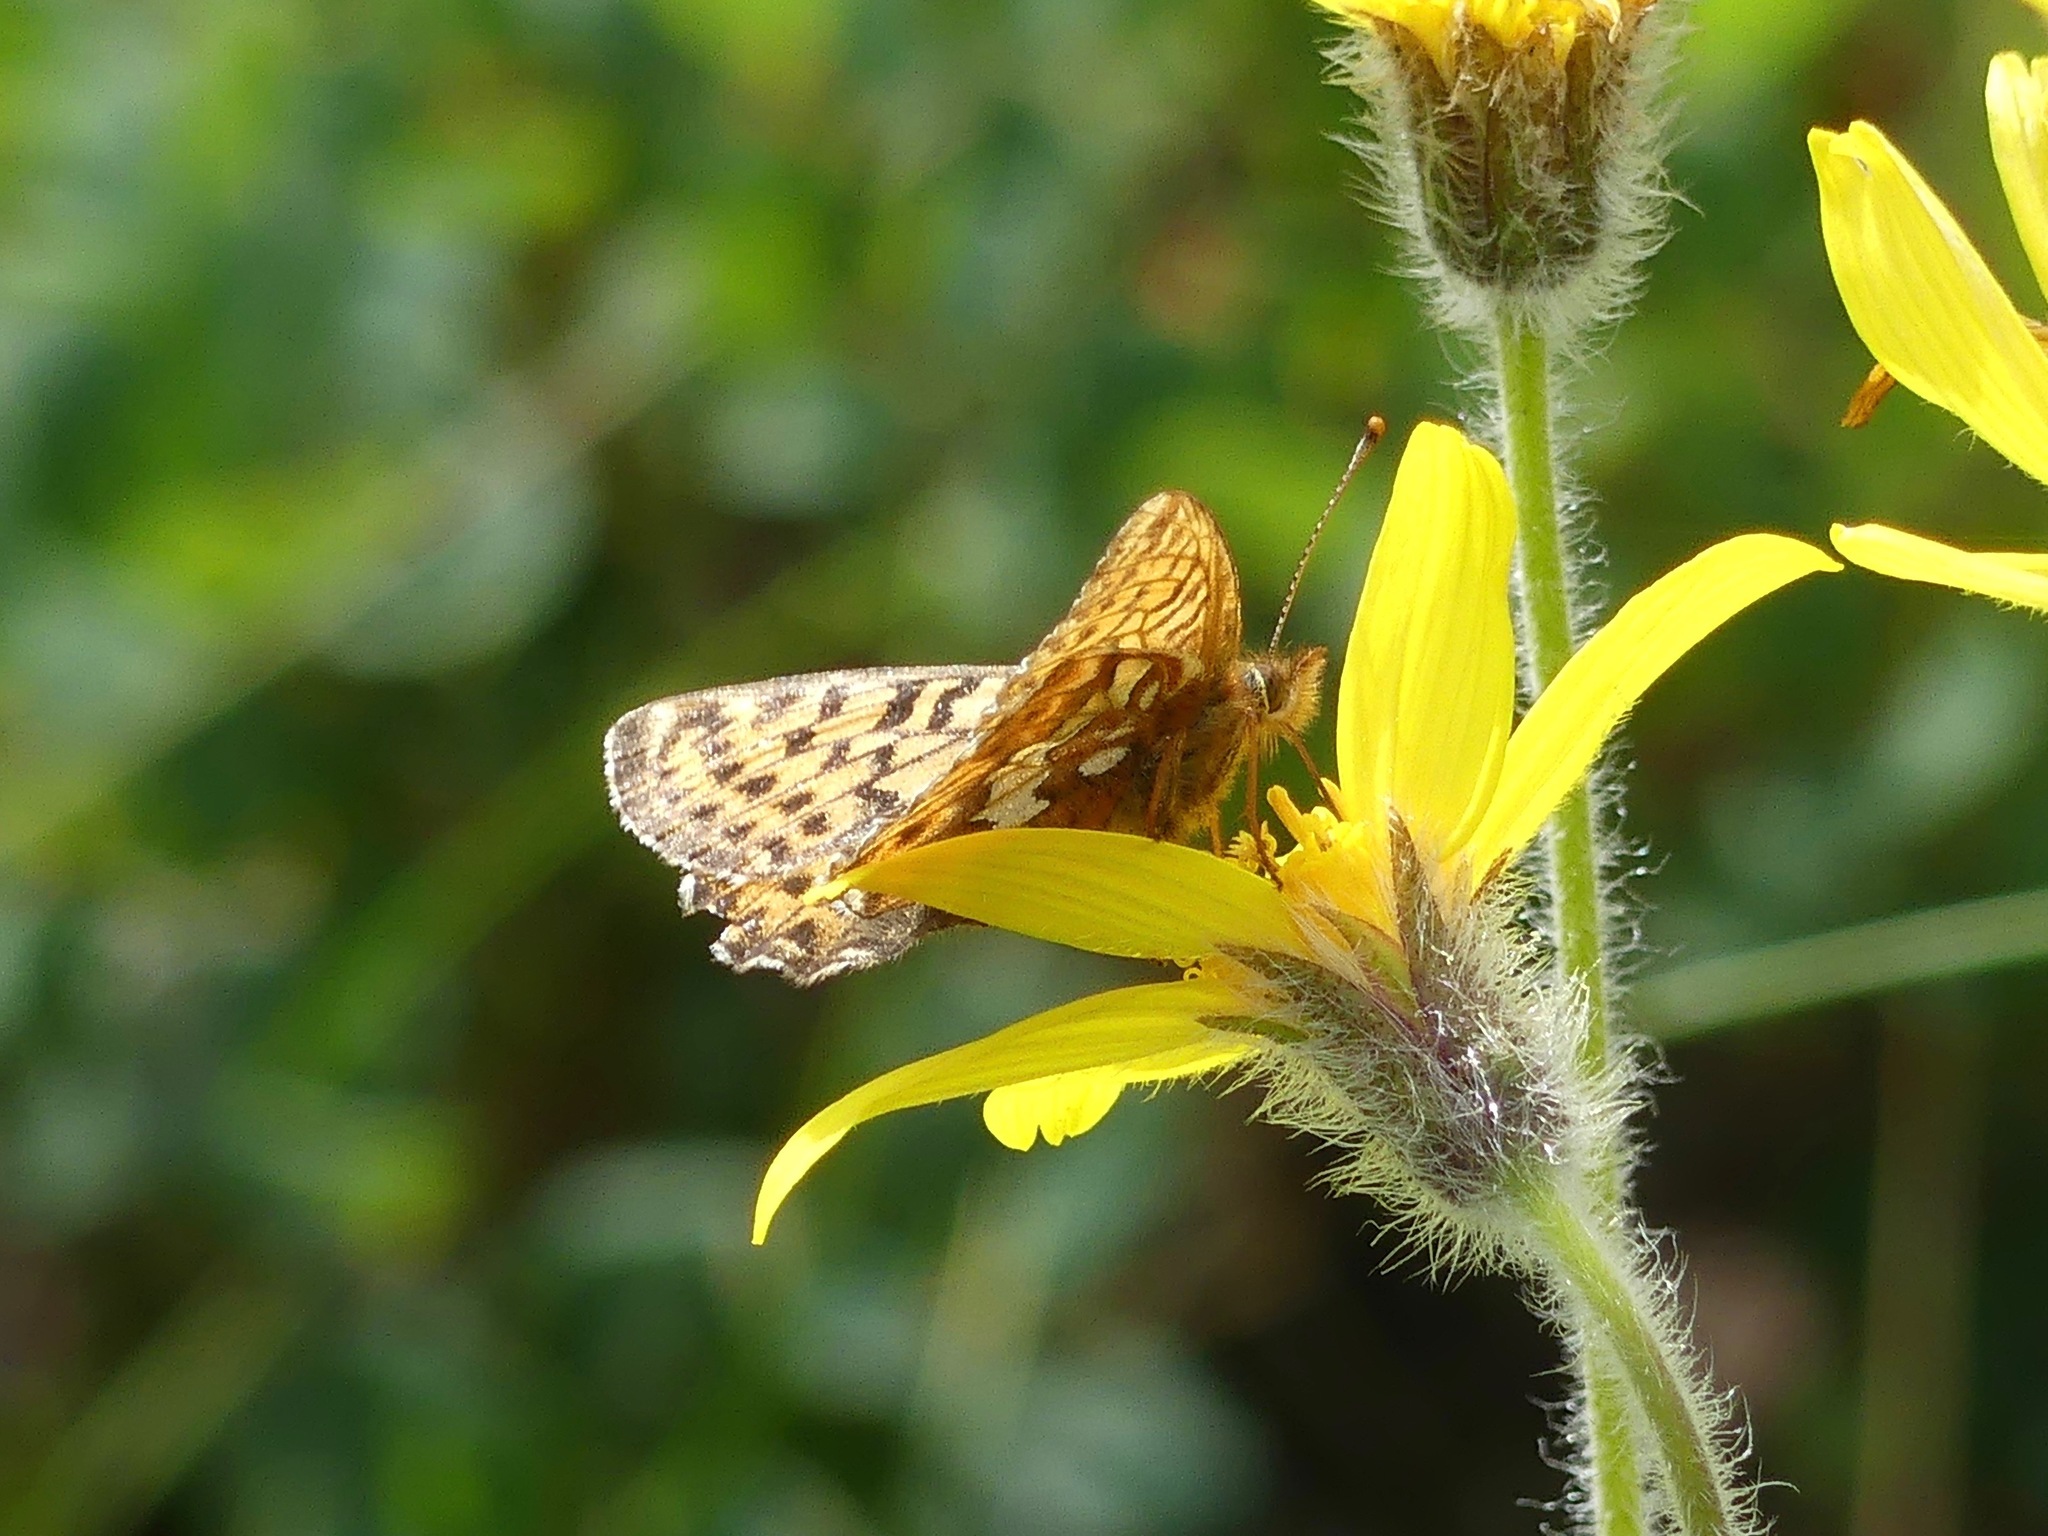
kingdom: Animalia
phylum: Arthropoda
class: Insecta
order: Lepidoptera
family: Nymphalidae
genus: Boloria
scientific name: Boloria chariclea
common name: Arctic fritillary
